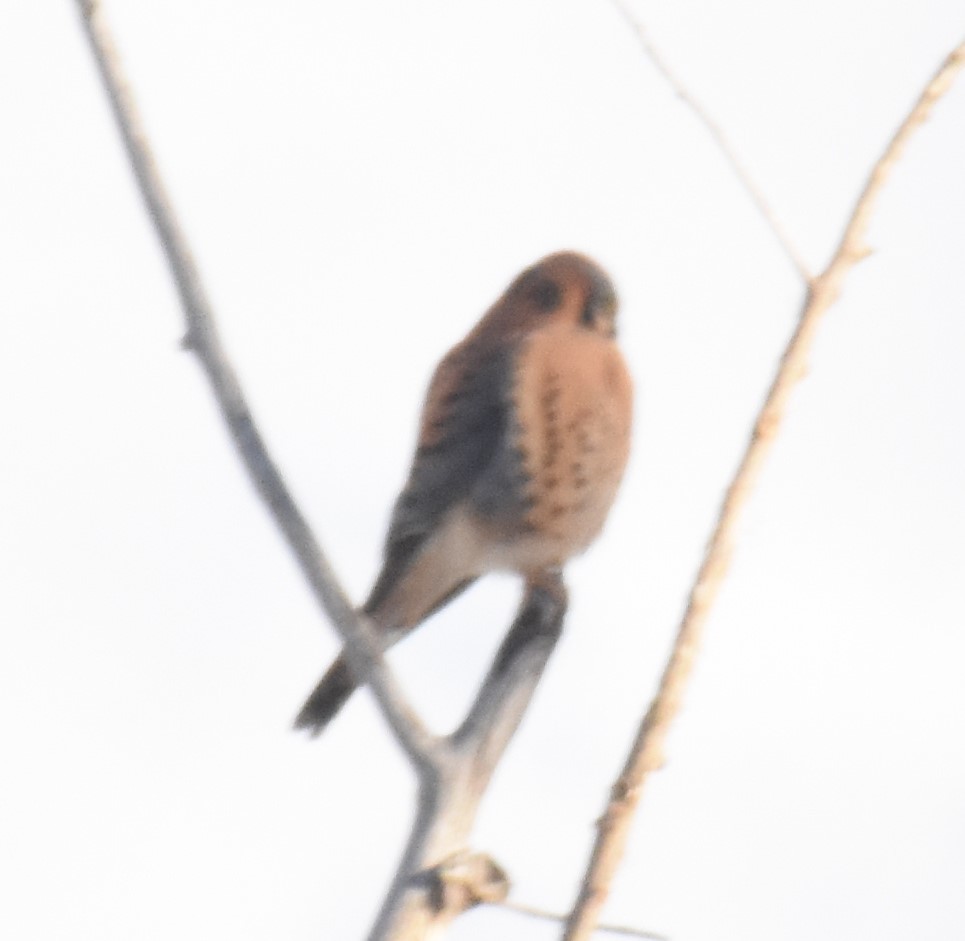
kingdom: Animalia
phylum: Chordata
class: Aves
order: Falconiformes
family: Falconidae
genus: Falco
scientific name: Falco sparverius
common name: American kestrel
